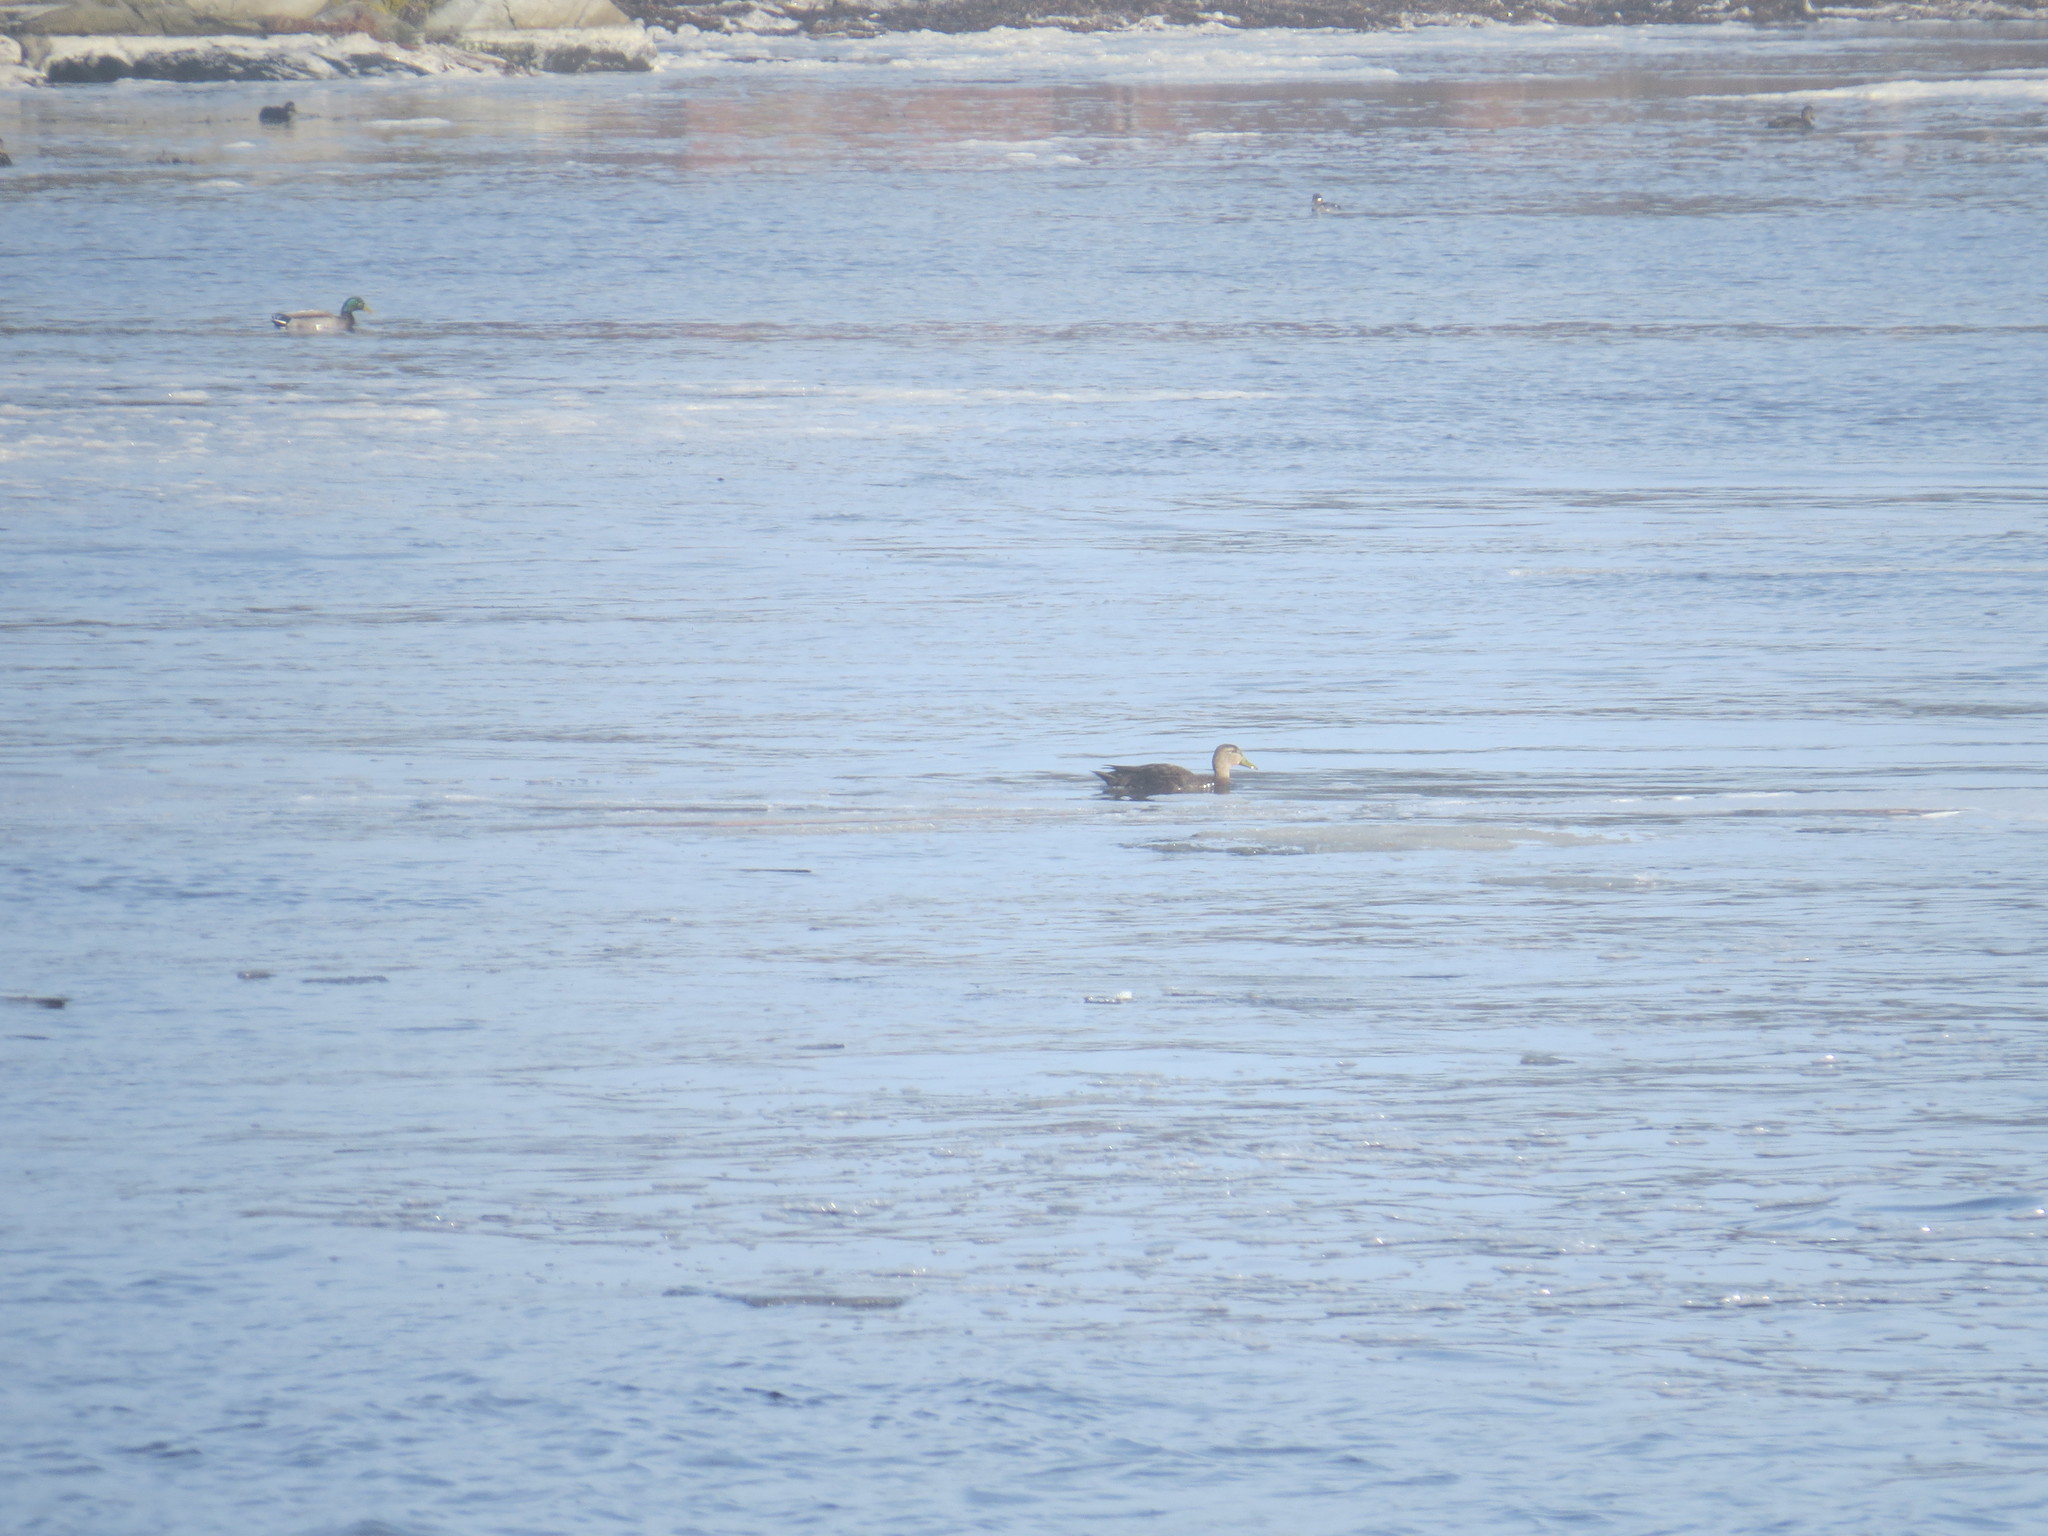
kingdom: Animalia
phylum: Chordata
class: Aves
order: Anseriformes
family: Anatidae
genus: Anas
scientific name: Anas rubripes
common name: American black duck
